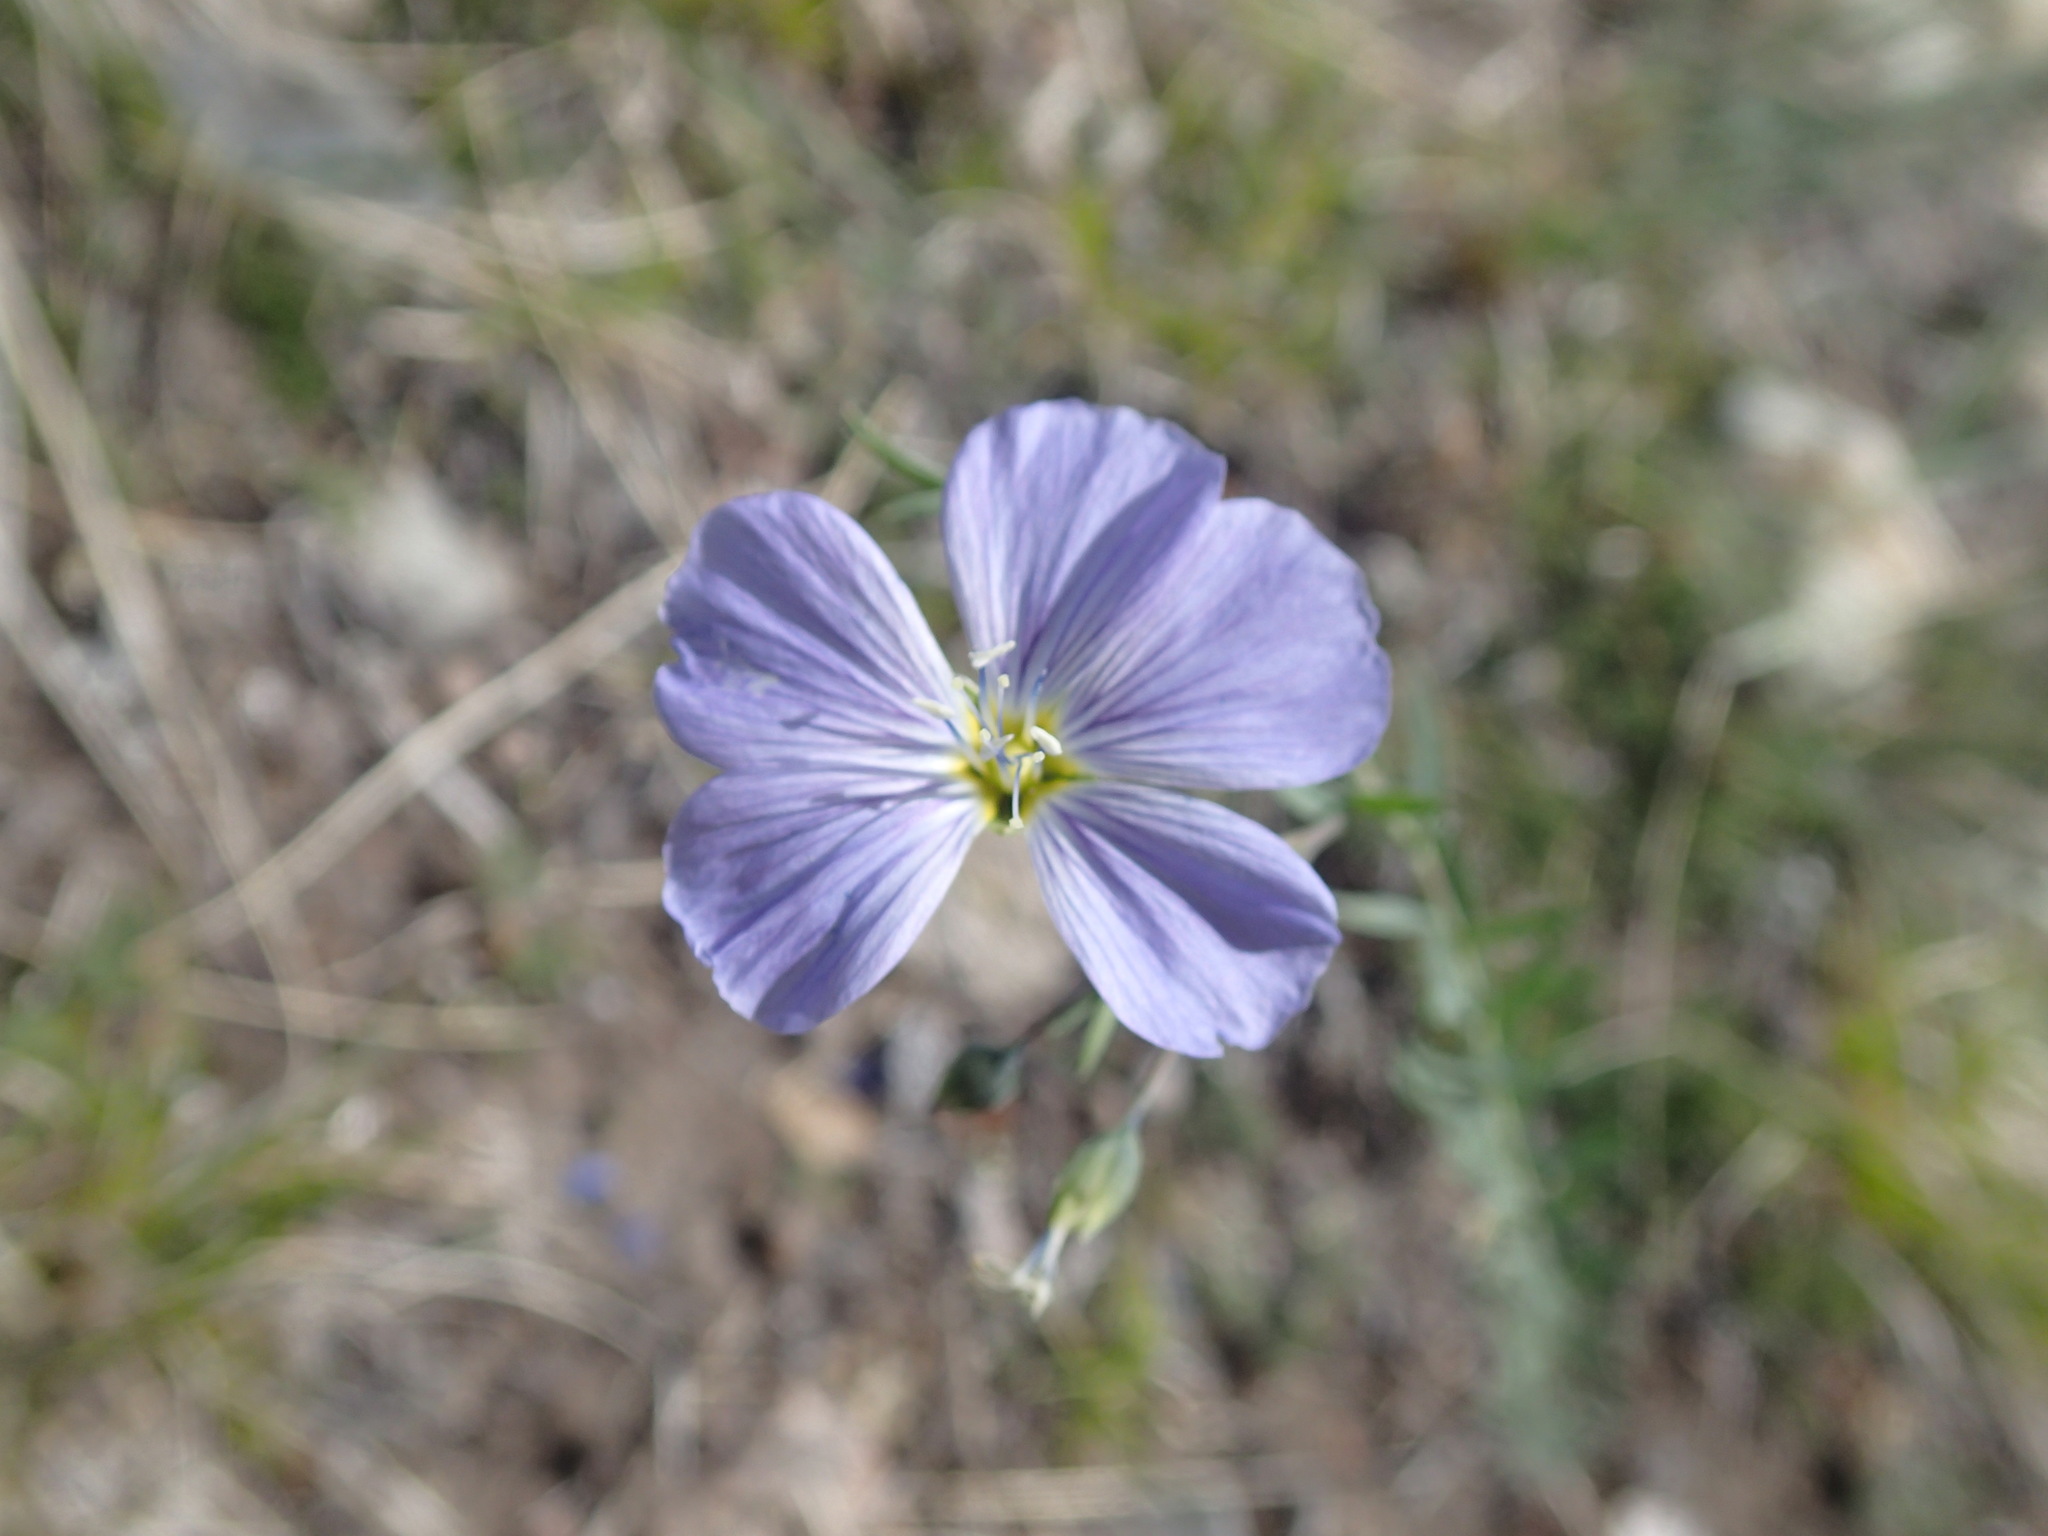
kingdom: Plantae
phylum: Tracheophyta
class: Magnoliopsida
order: Malpighiales
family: Linaceae
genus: Linum
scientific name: Linum lewisii
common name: Prairie flax
